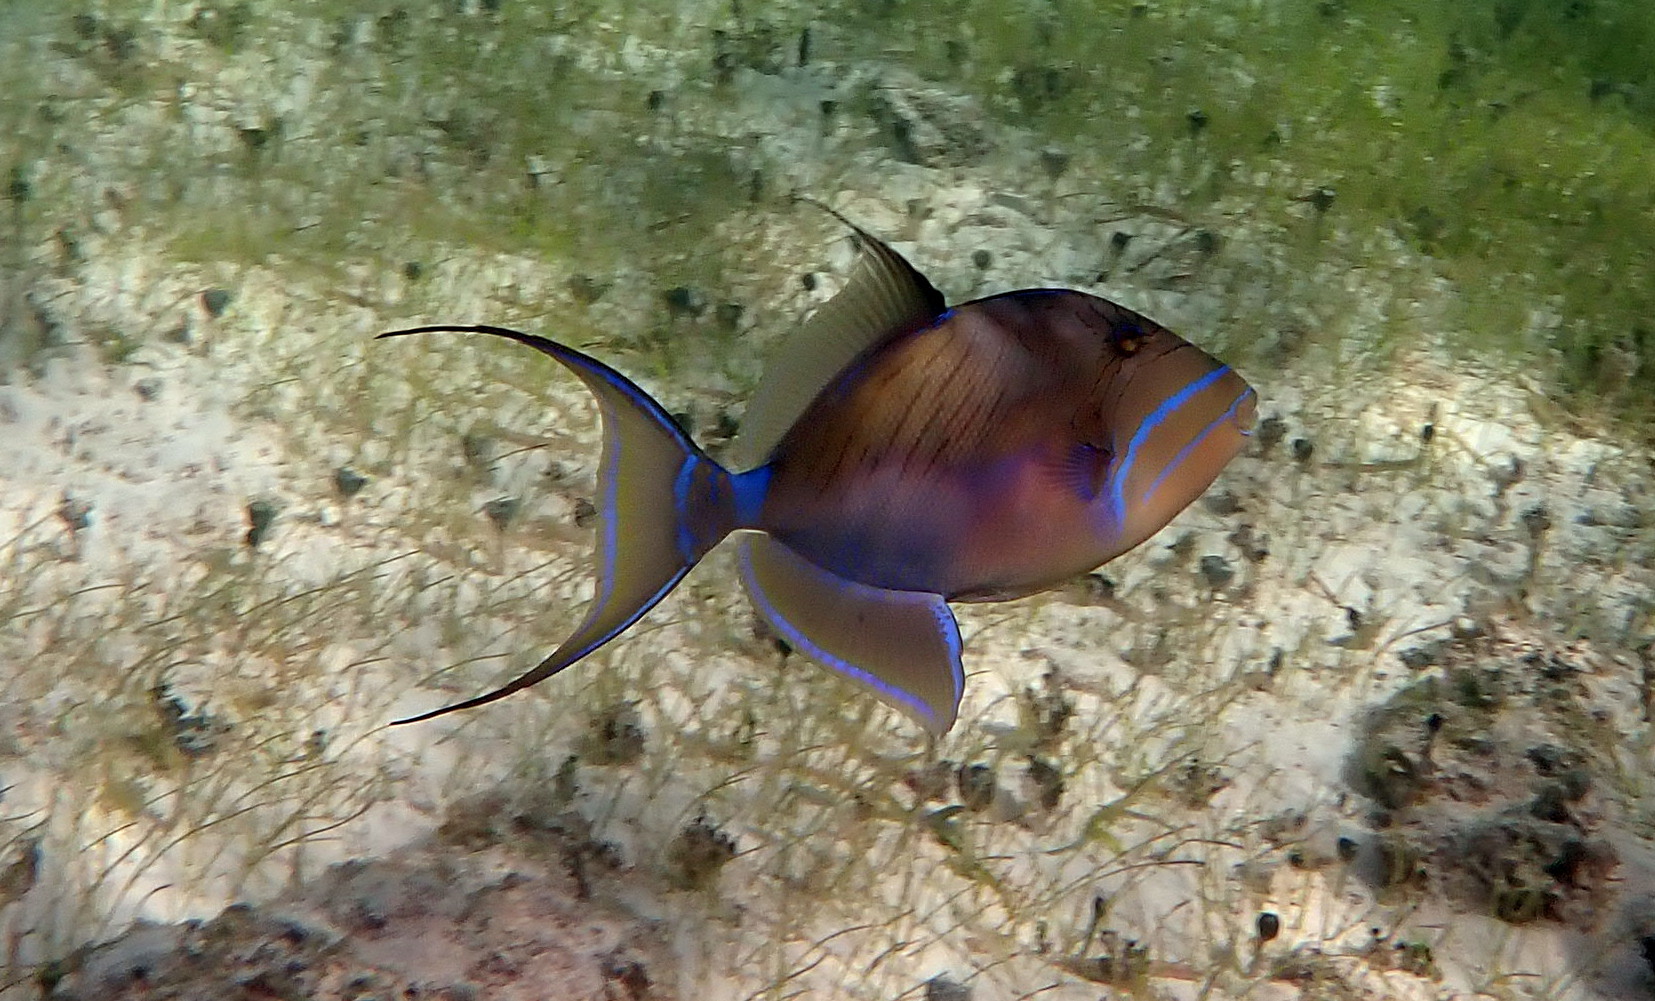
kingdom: Animalia
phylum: Chordata
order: Tetraodontiformes
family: Balistidae
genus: Balistes
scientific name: Balistes vetula
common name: Queen triggerfish
